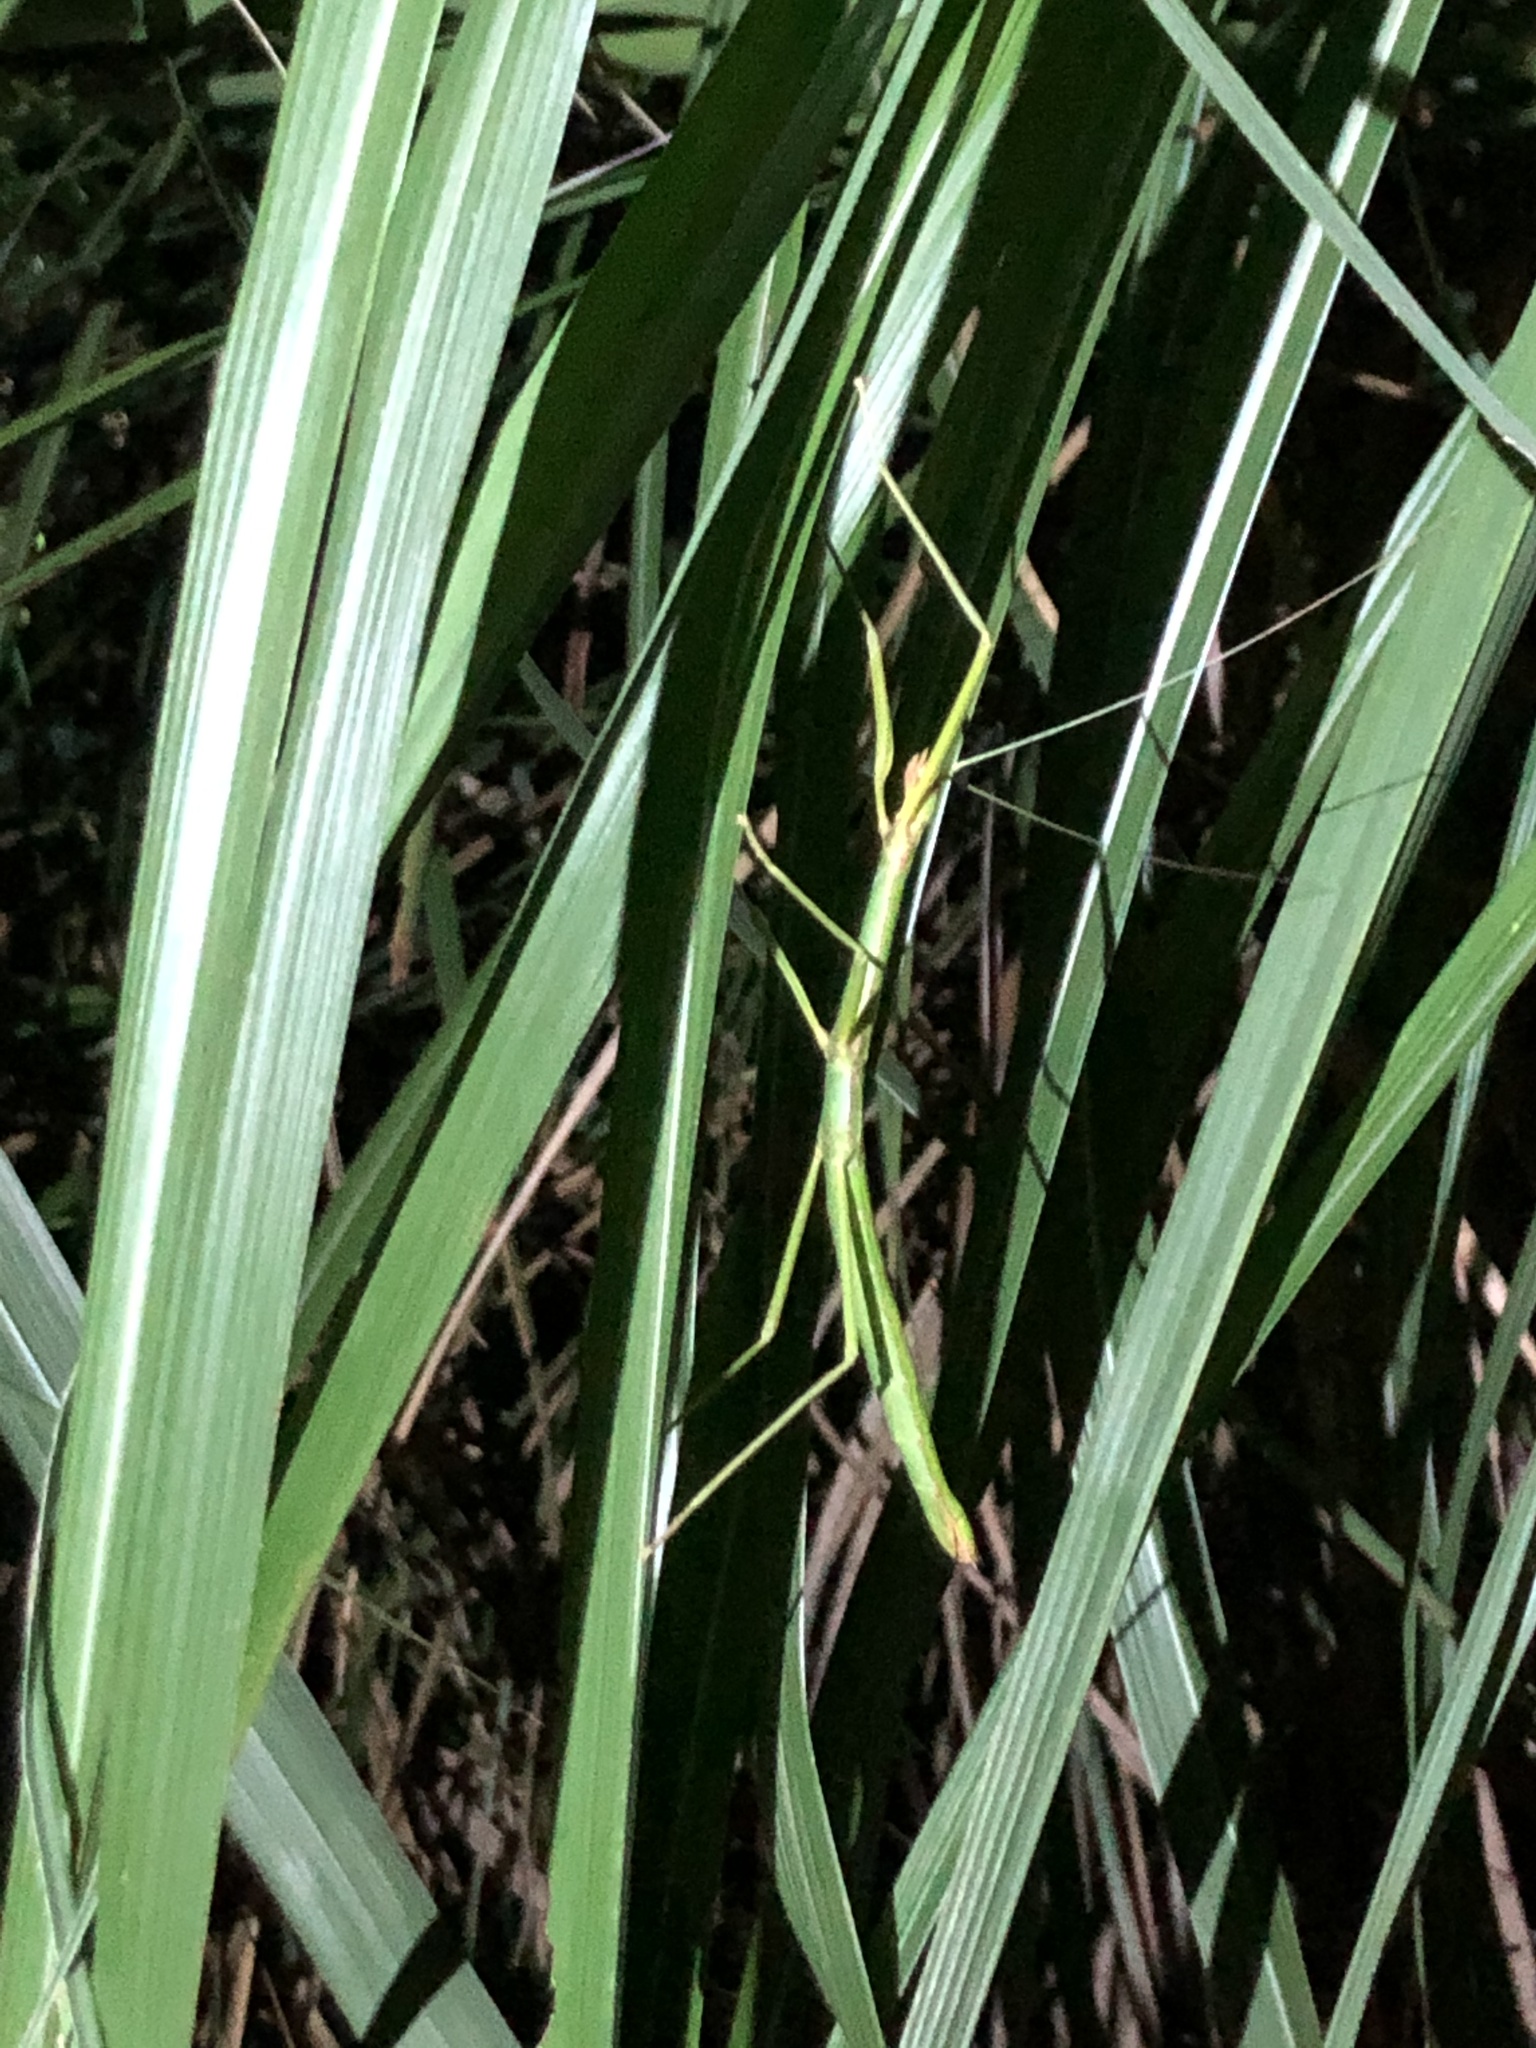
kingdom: Animalia
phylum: Arthropoda
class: Insecta
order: Phasmida
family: Lonchodidae
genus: Lopaphus
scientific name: Lopaphus balteatus
